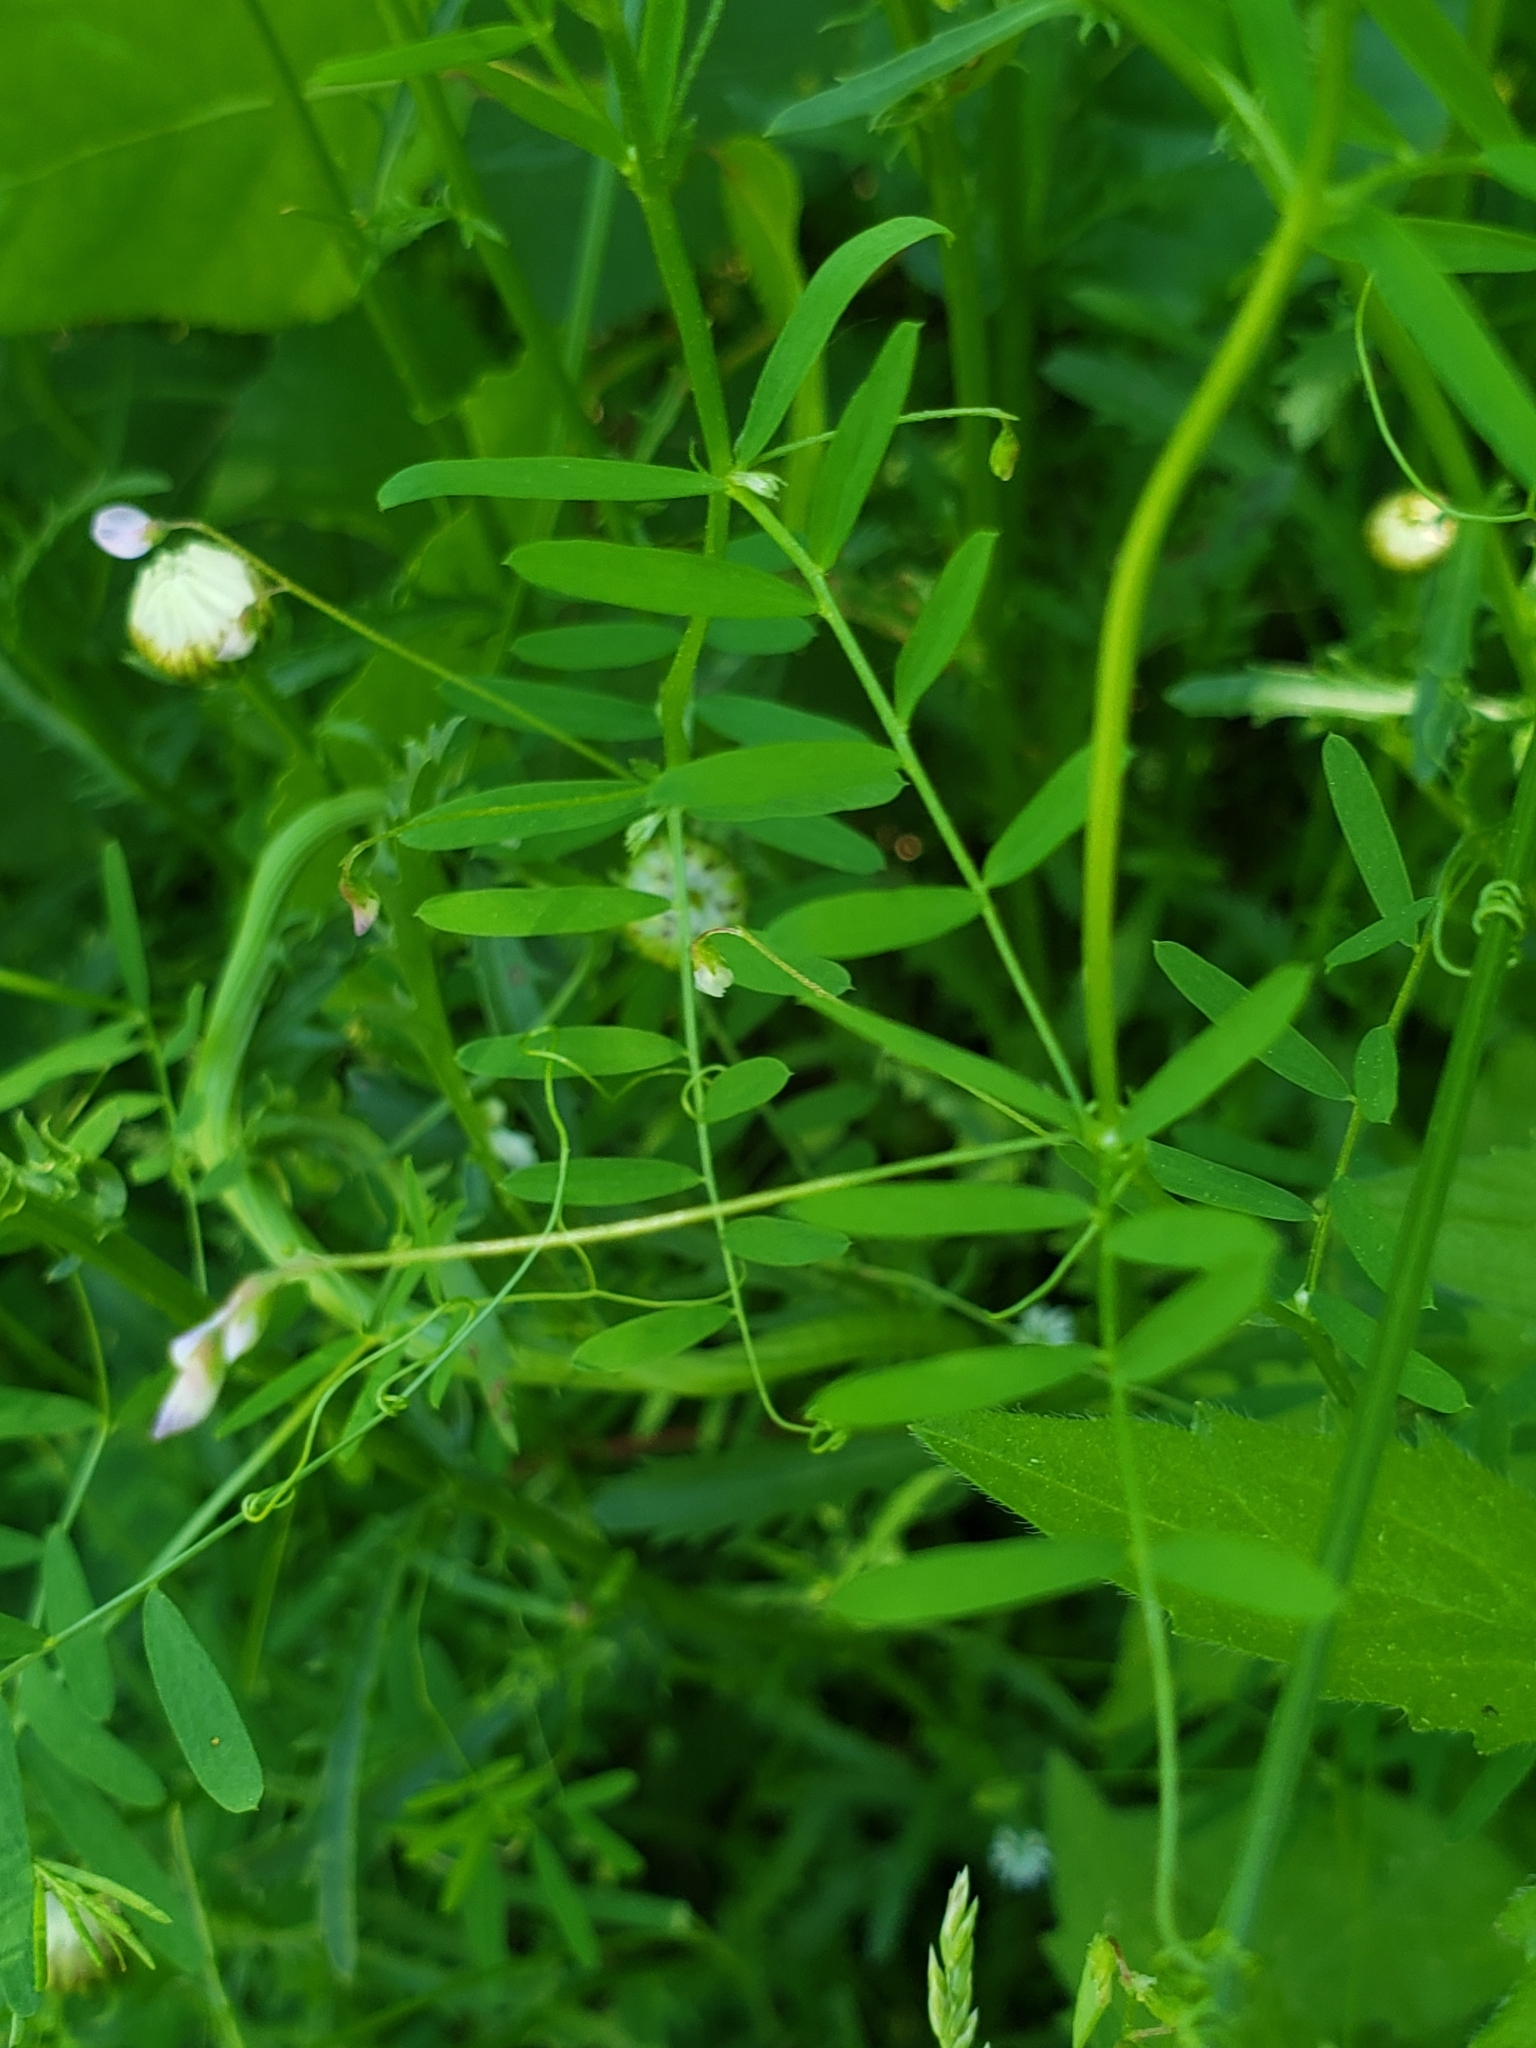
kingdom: Plantae
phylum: Tracheophyta
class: Magnoliopsida
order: Fabales
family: Fabaceae
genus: Vicia
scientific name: Vicia tetrasperma
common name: Smooth tare
